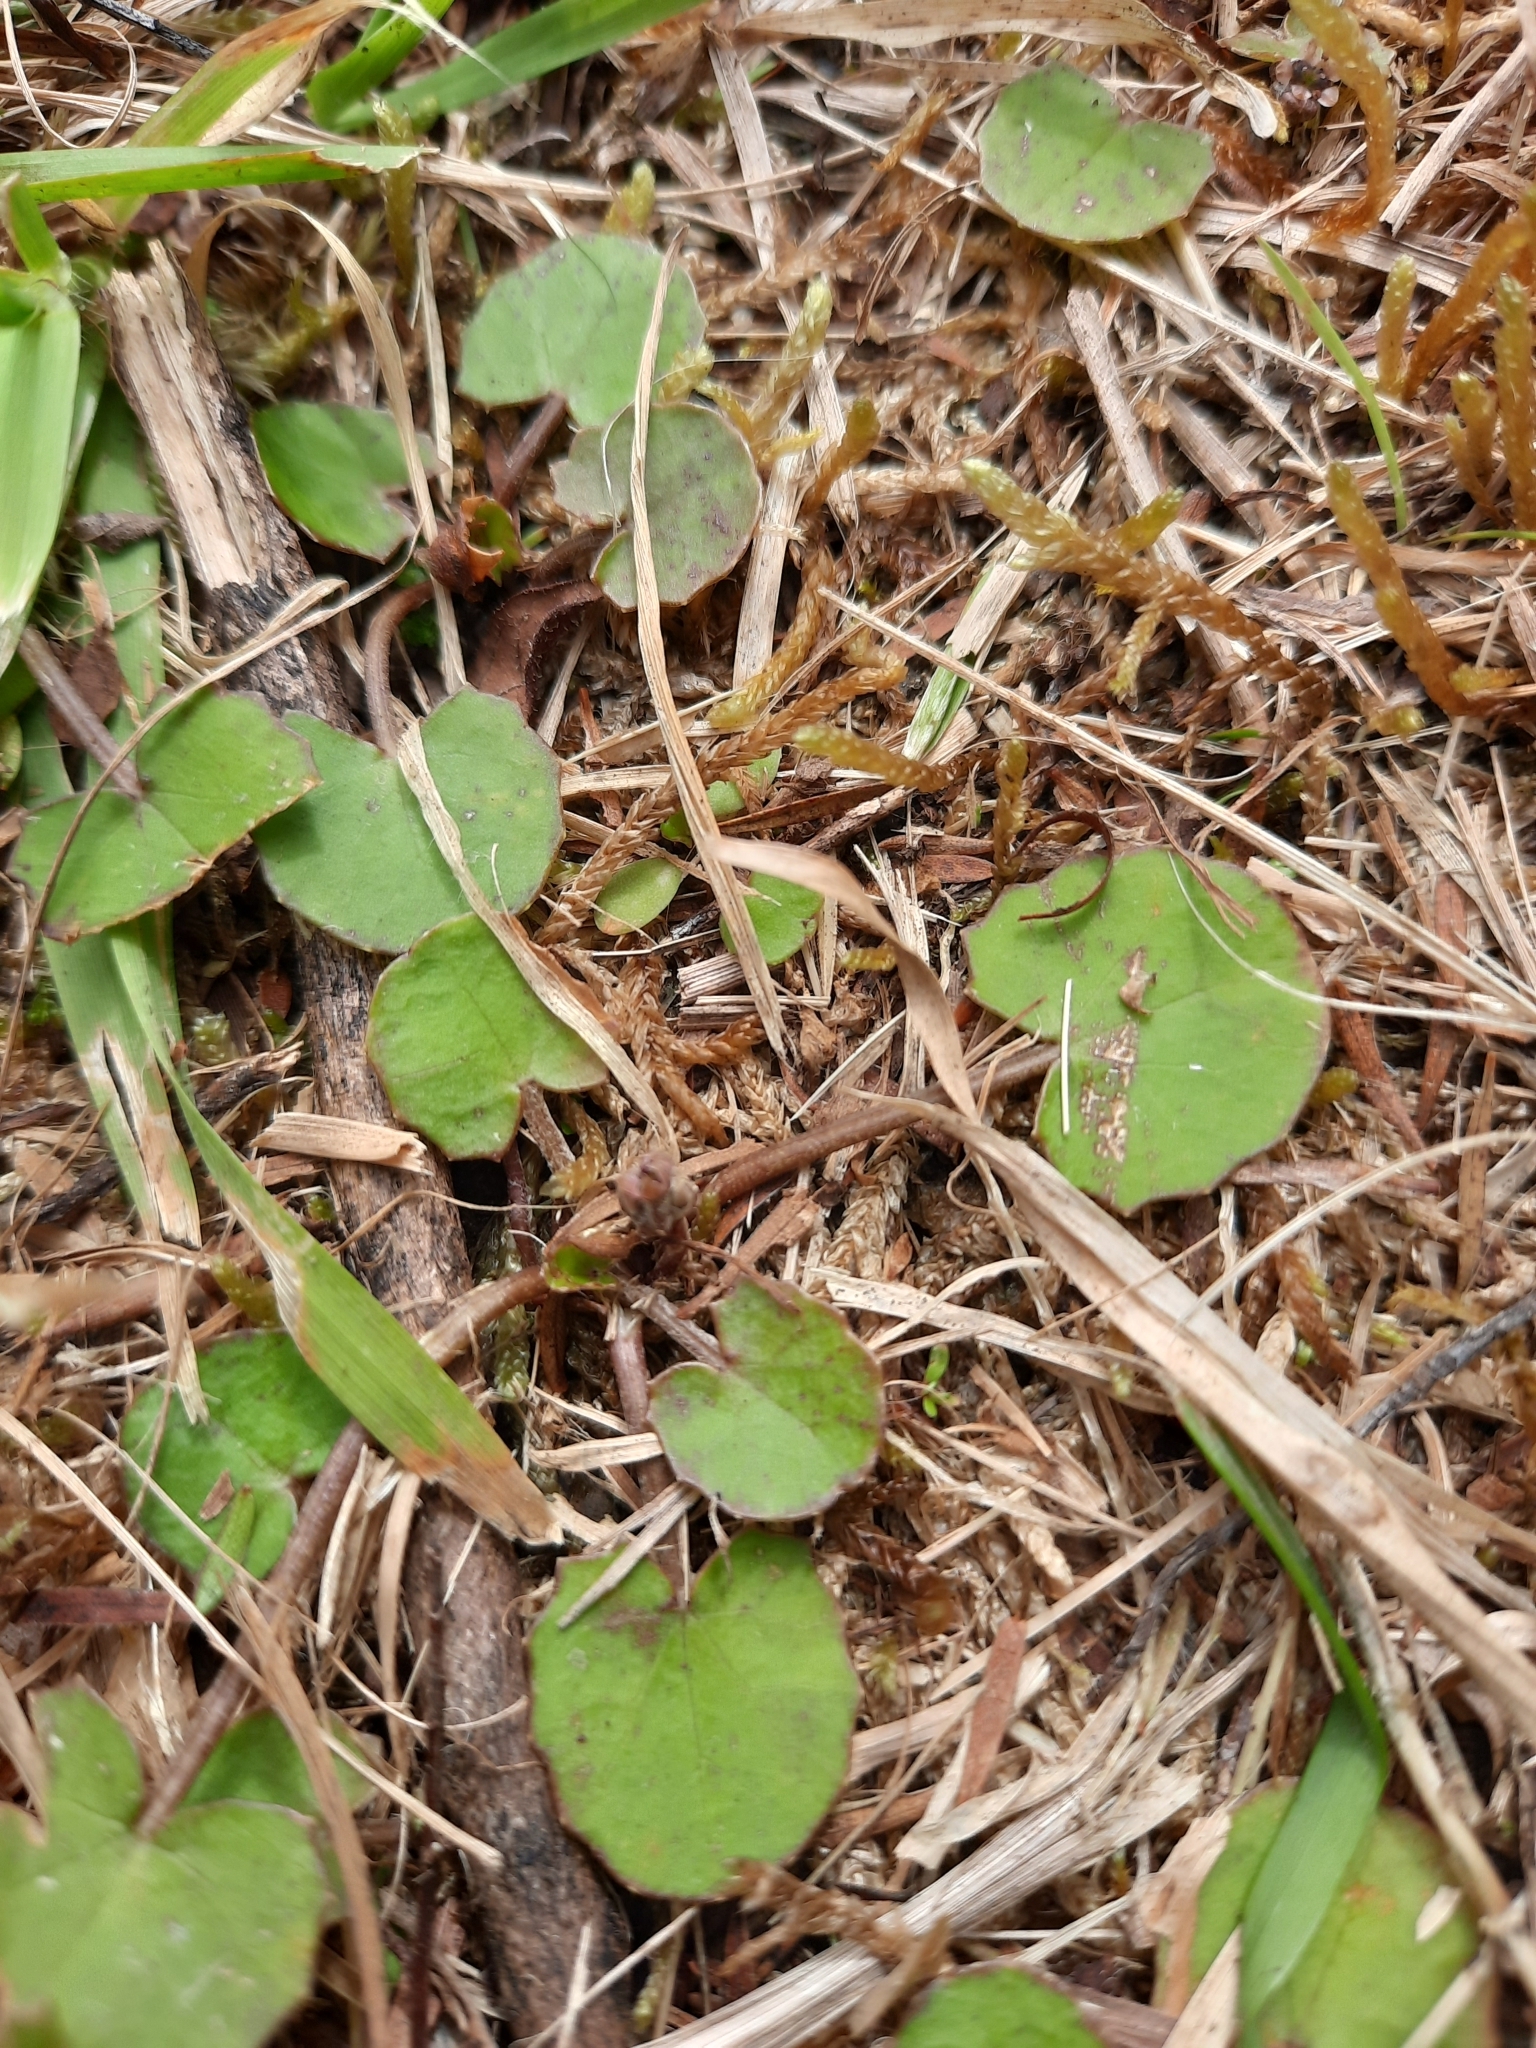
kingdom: Plantae
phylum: Tracheophyta
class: Magnoliopsida
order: Apiales
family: Apiaceae
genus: Centella
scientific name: Centella uniflora
